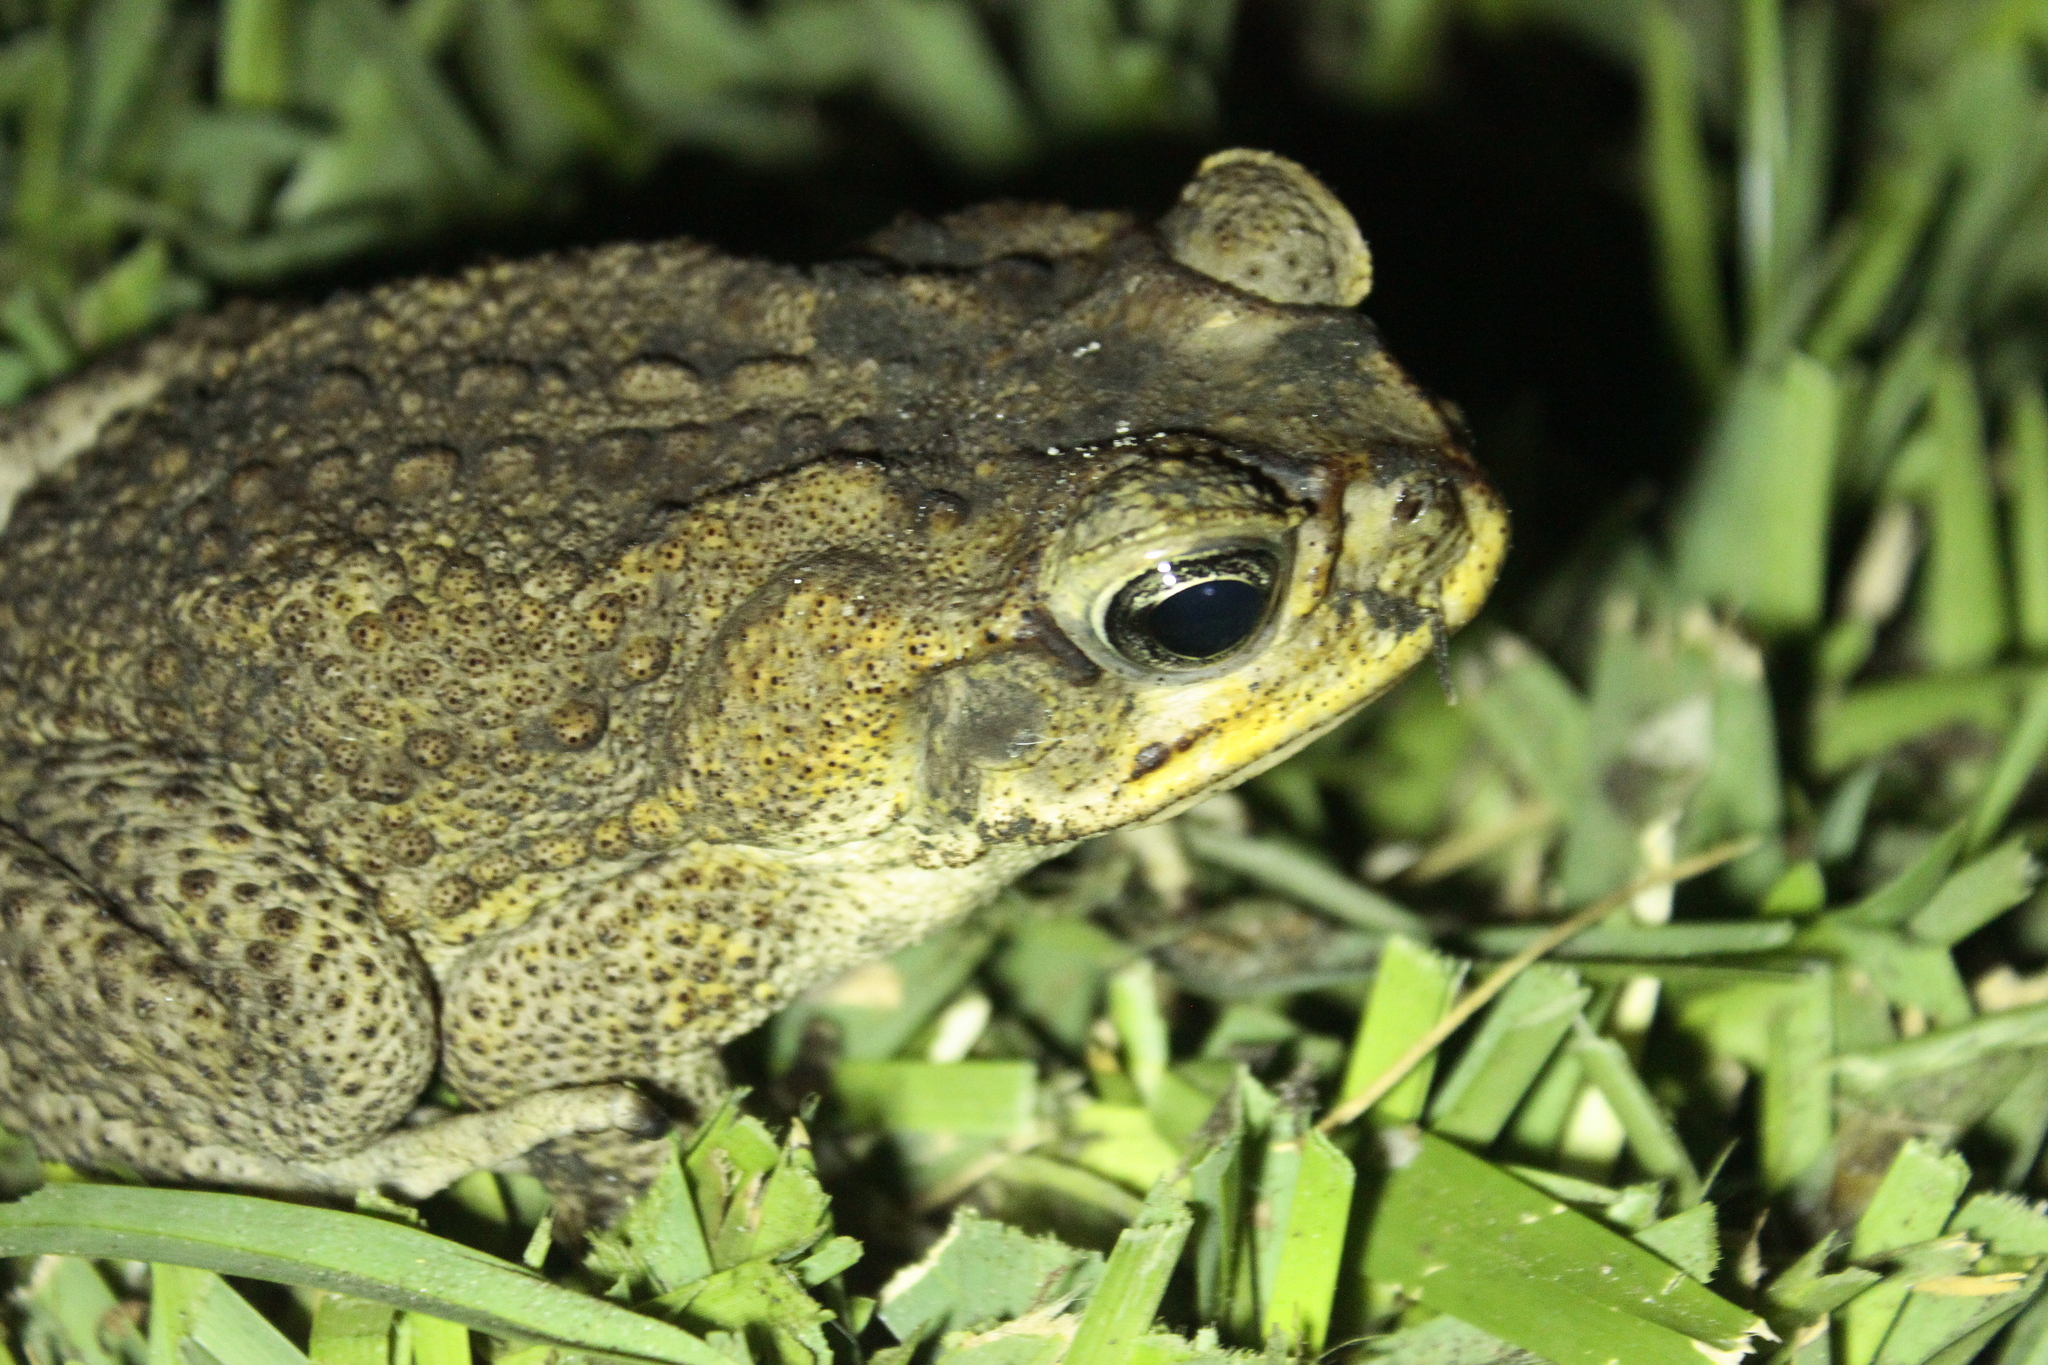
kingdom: Animalia
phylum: Chordata
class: Amphibia
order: Anura
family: Bufonidae
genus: Rhinella
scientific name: Rhinella marina
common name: Cane toad
